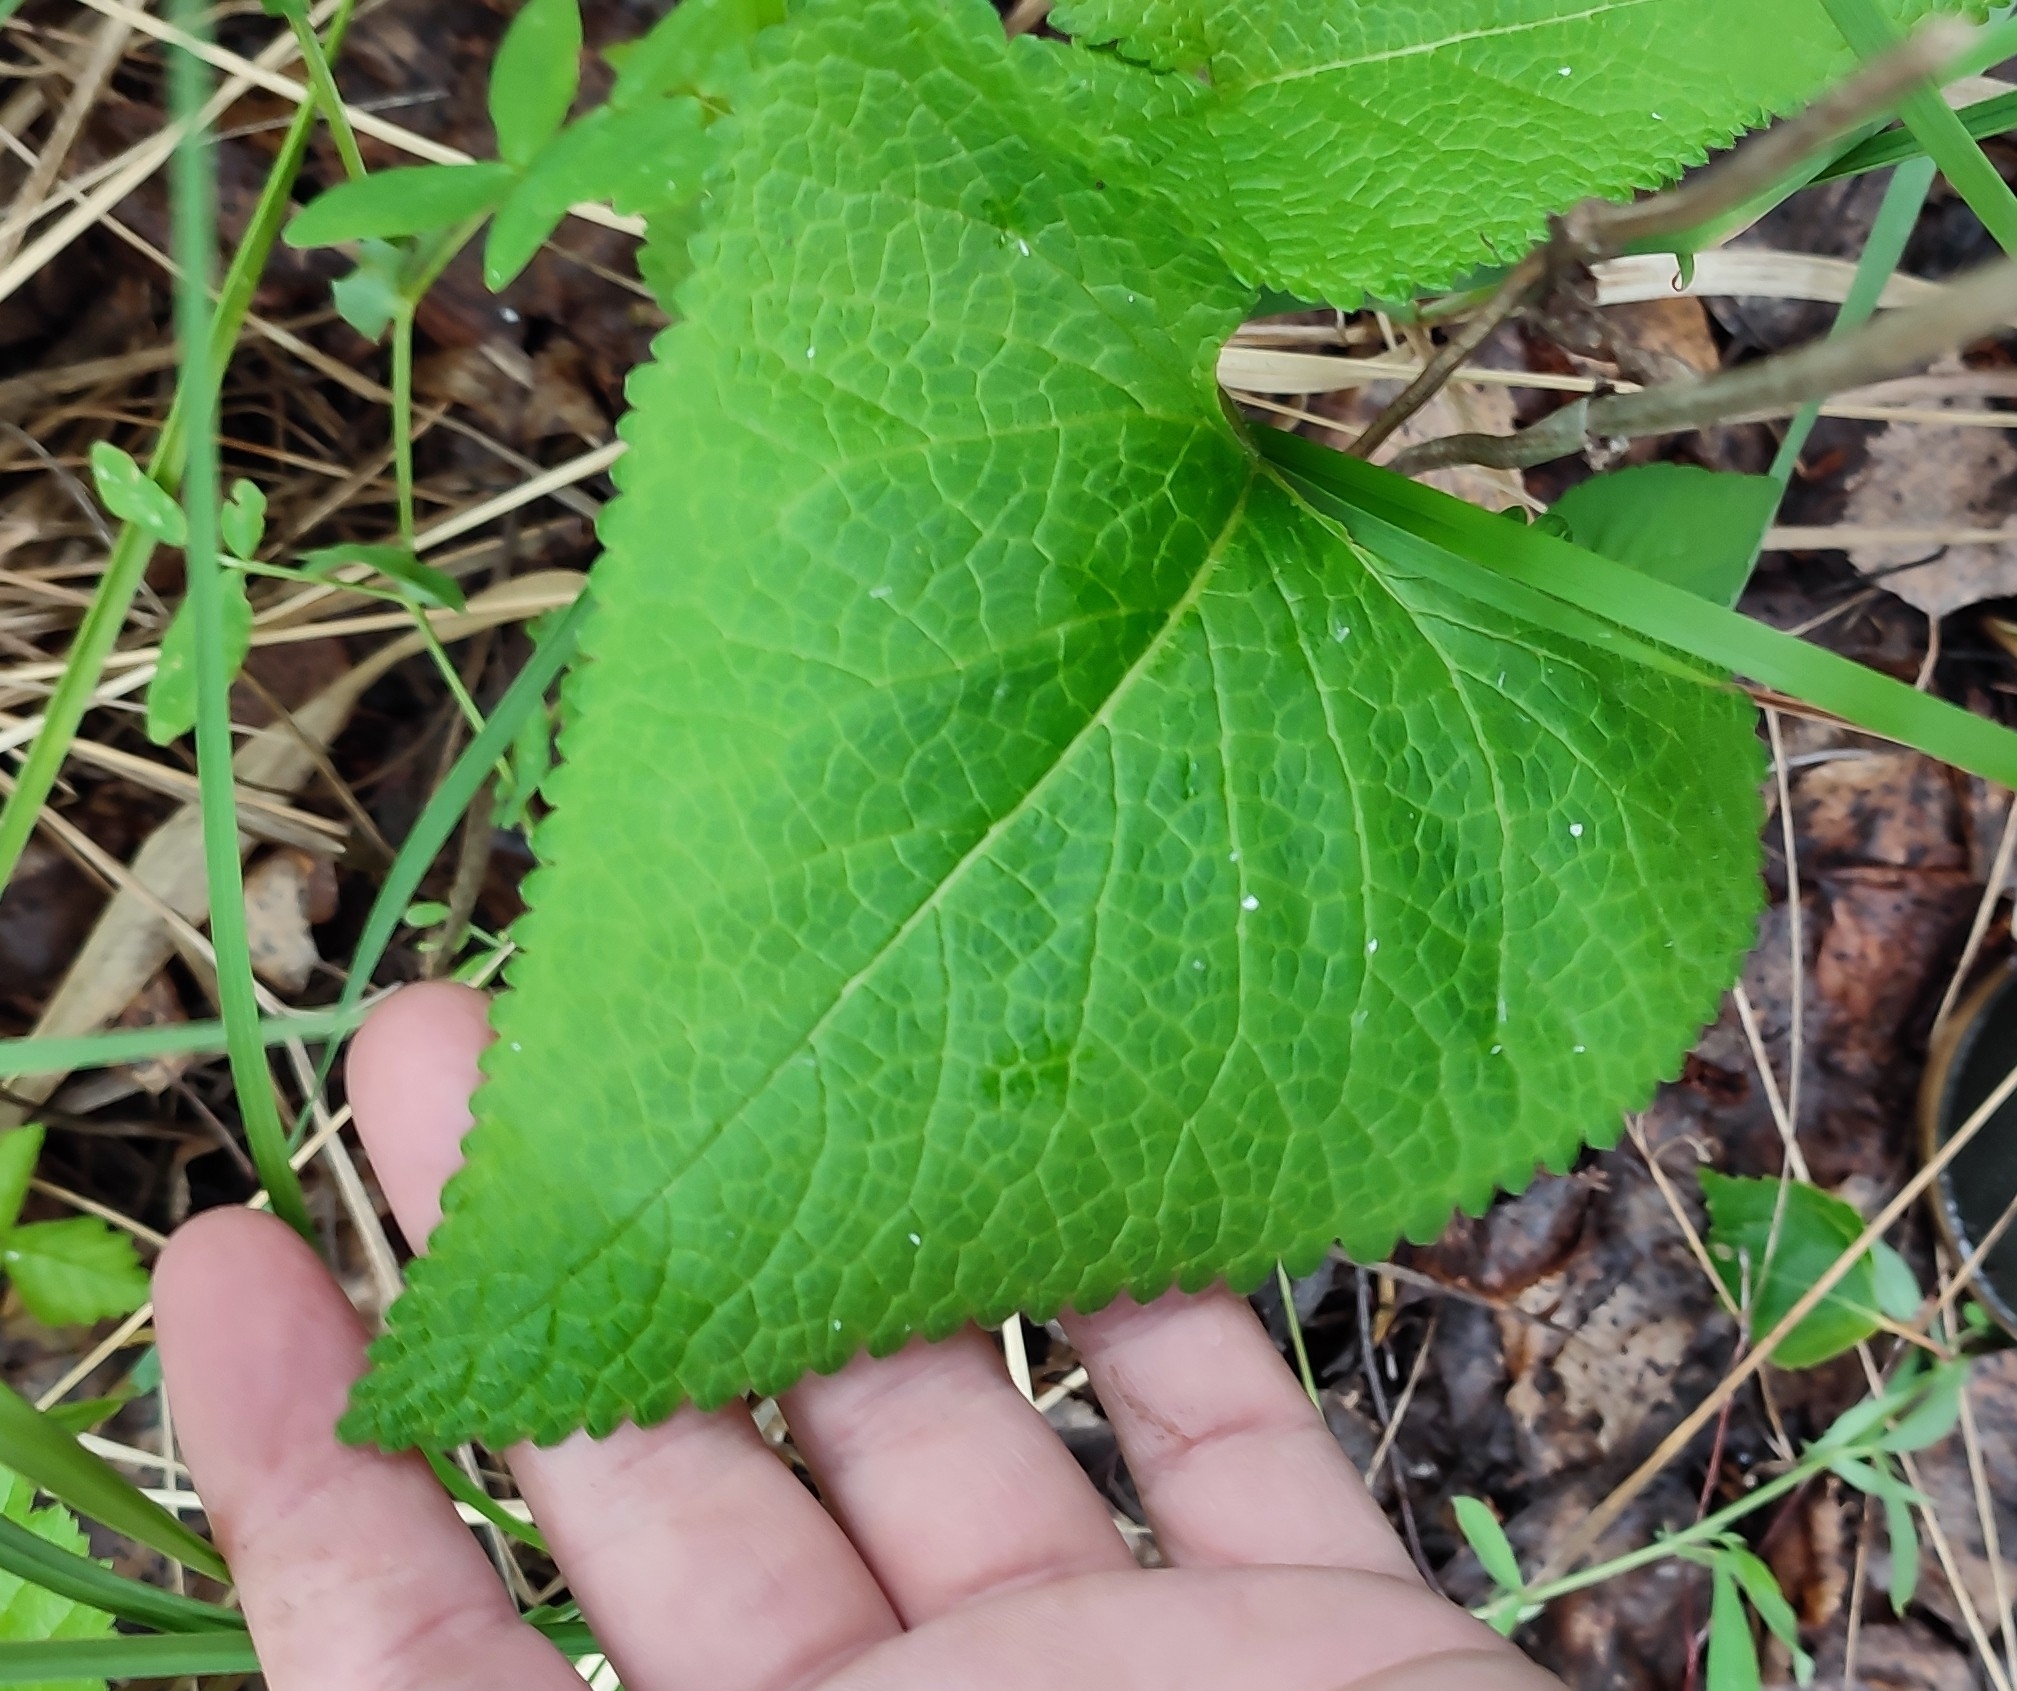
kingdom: Plantae
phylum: Tracheophyta
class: Magnoliopsida
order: Lamiales
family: Lamiaceae
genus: Phlomoides
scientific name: Phlomoides tuberosa
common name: Tuberous jerusalem sage
